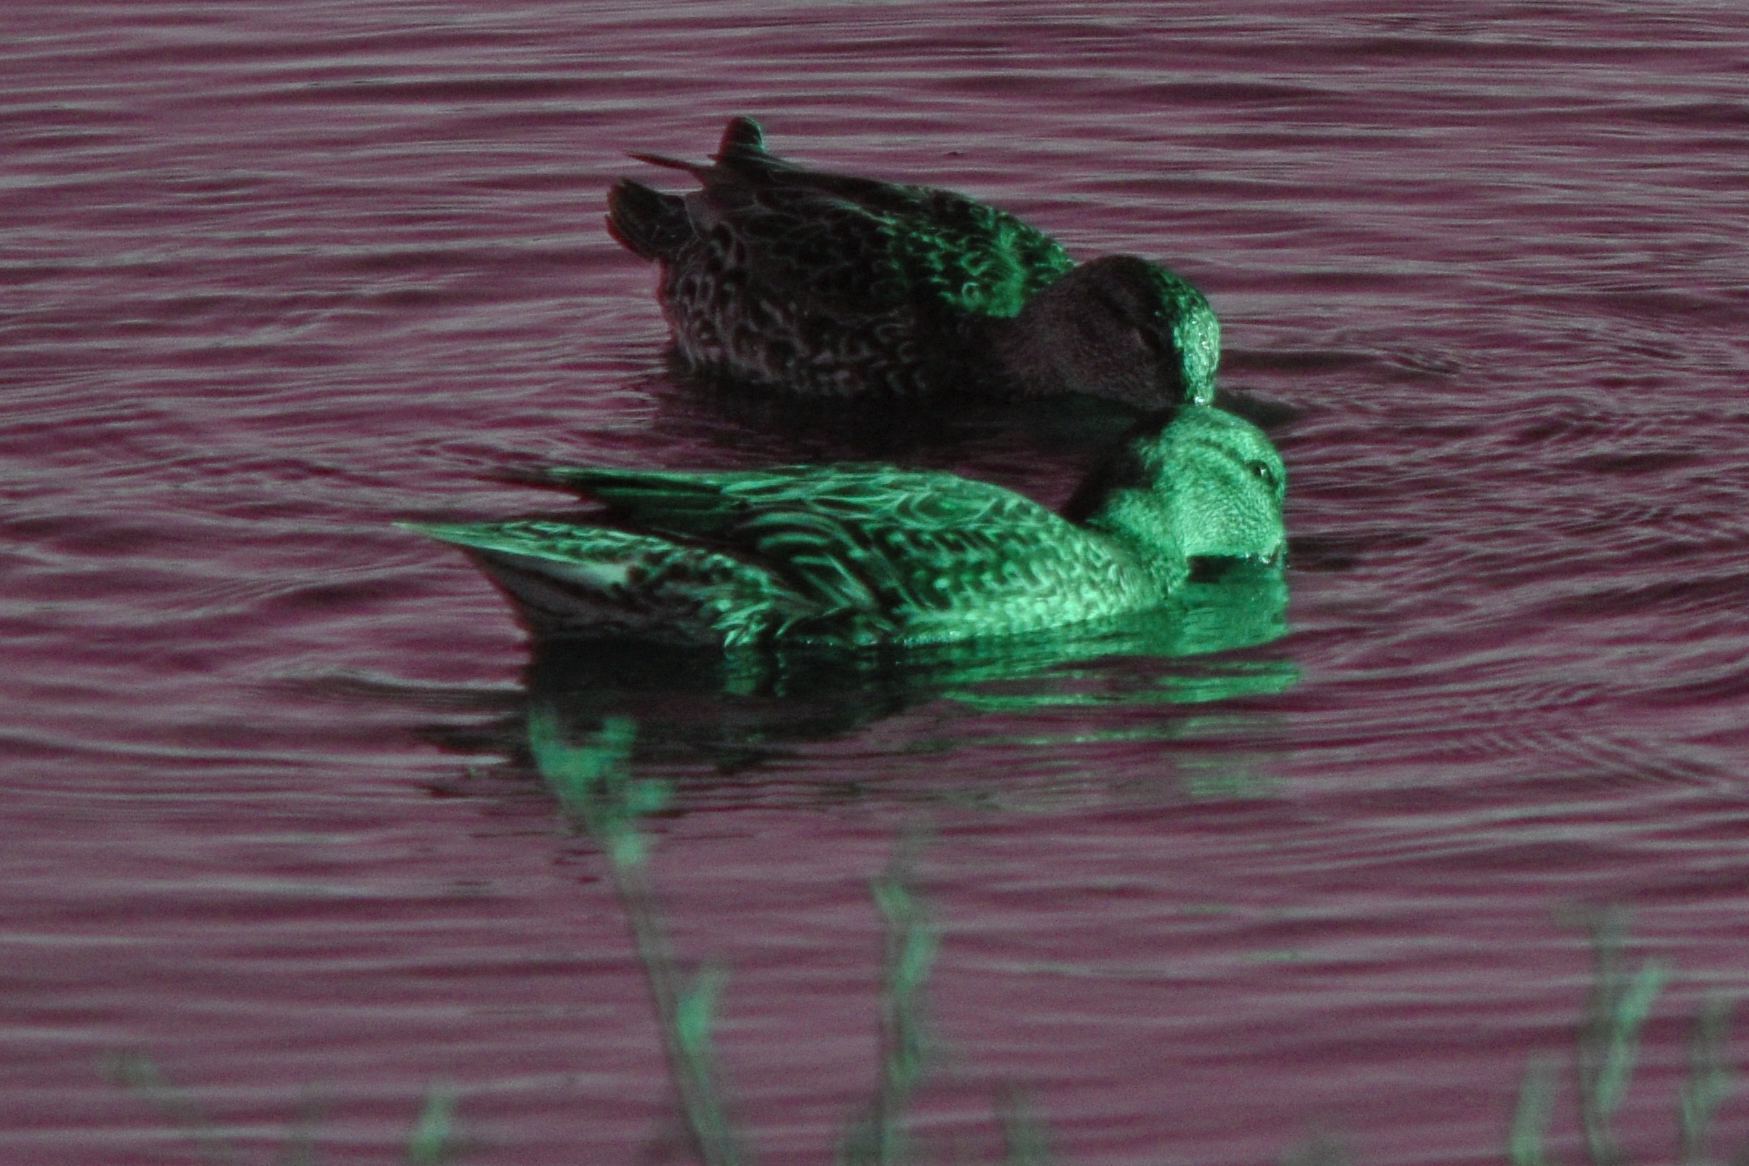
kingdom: Animalia
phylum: Chordata
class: Aves
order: Anseriformes
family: Anatidae
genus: Anas
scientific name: Anas crecca
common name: Eurasian teal
